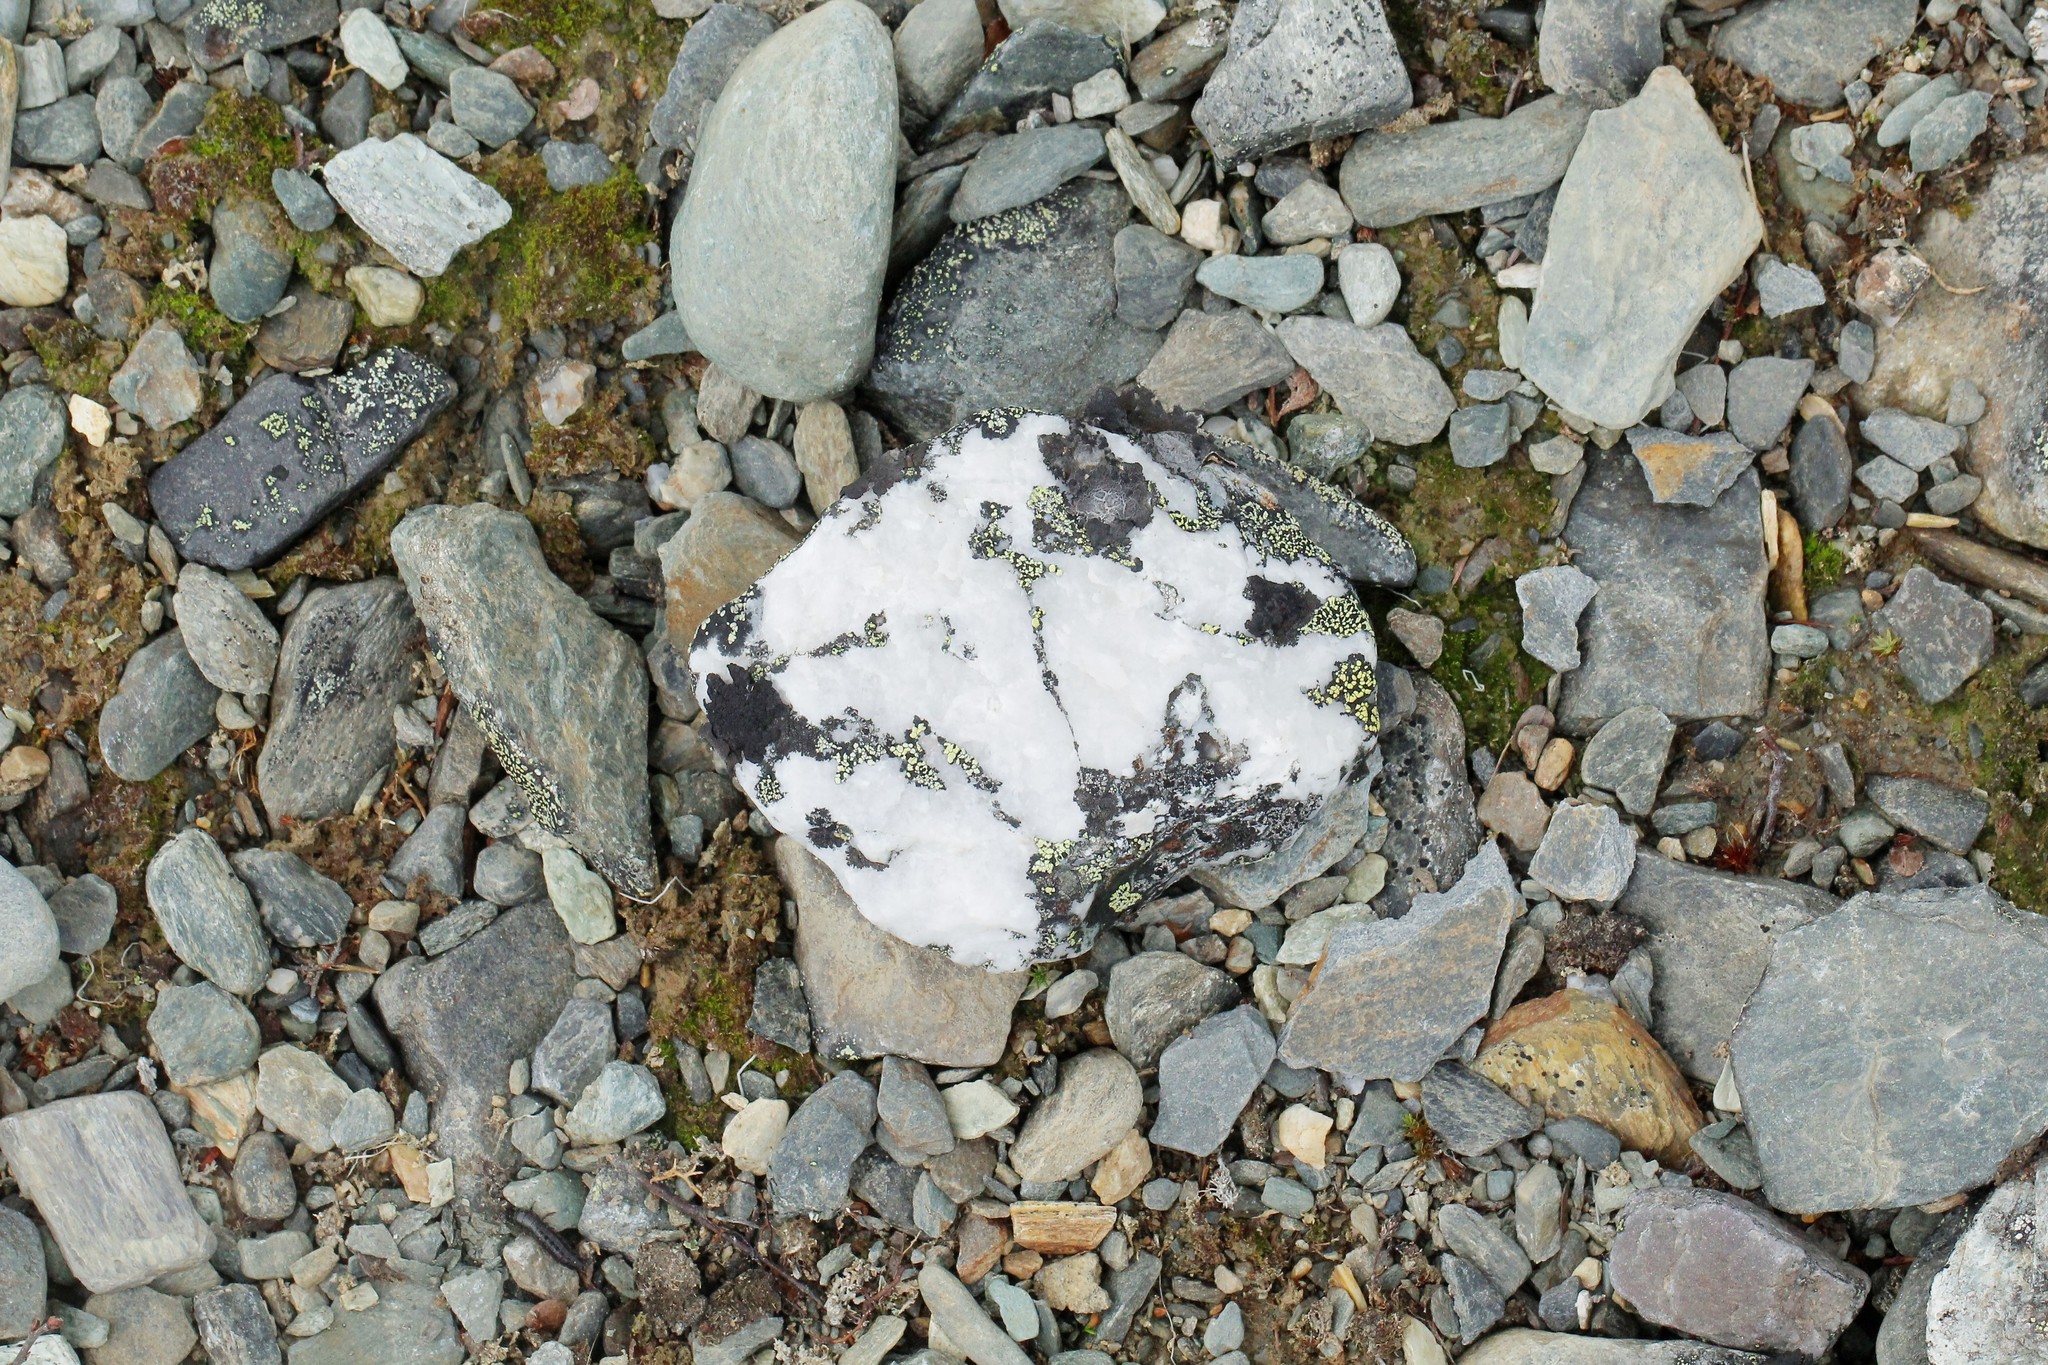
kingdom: Fungi
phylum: Ascomycota
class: Lecanoromycetes
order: Rhizocarpales
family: Rhizocarpaceae
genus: Rhizocarpon
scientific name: Rhizocarpon geographicum
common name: Yellow map lichen
